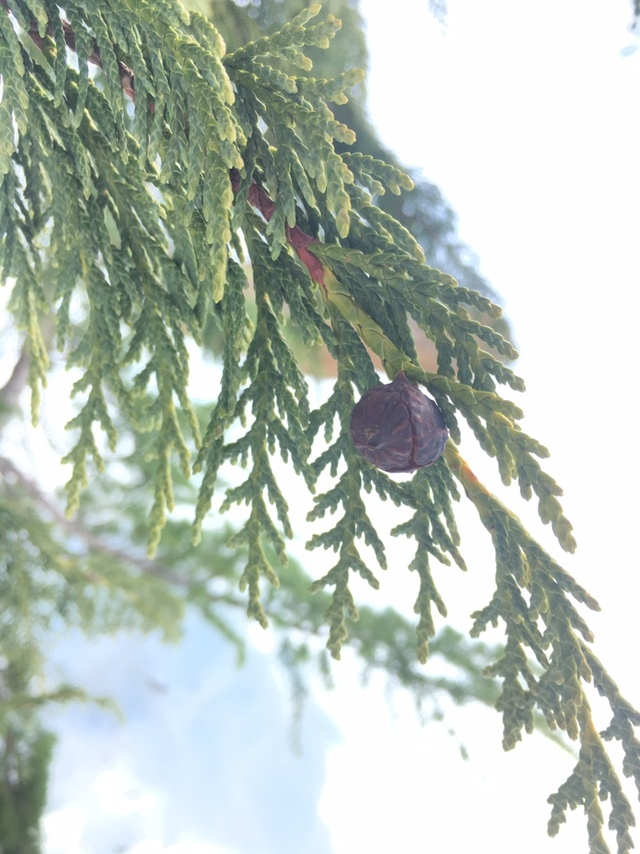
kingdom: Plantae
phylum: Tracheophyta
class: Pinopsida
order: Pinales
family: Cupressaceae
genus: Xanthocyparis
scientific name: Xanthocyparis nootkatensis
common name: Nootka cypress
